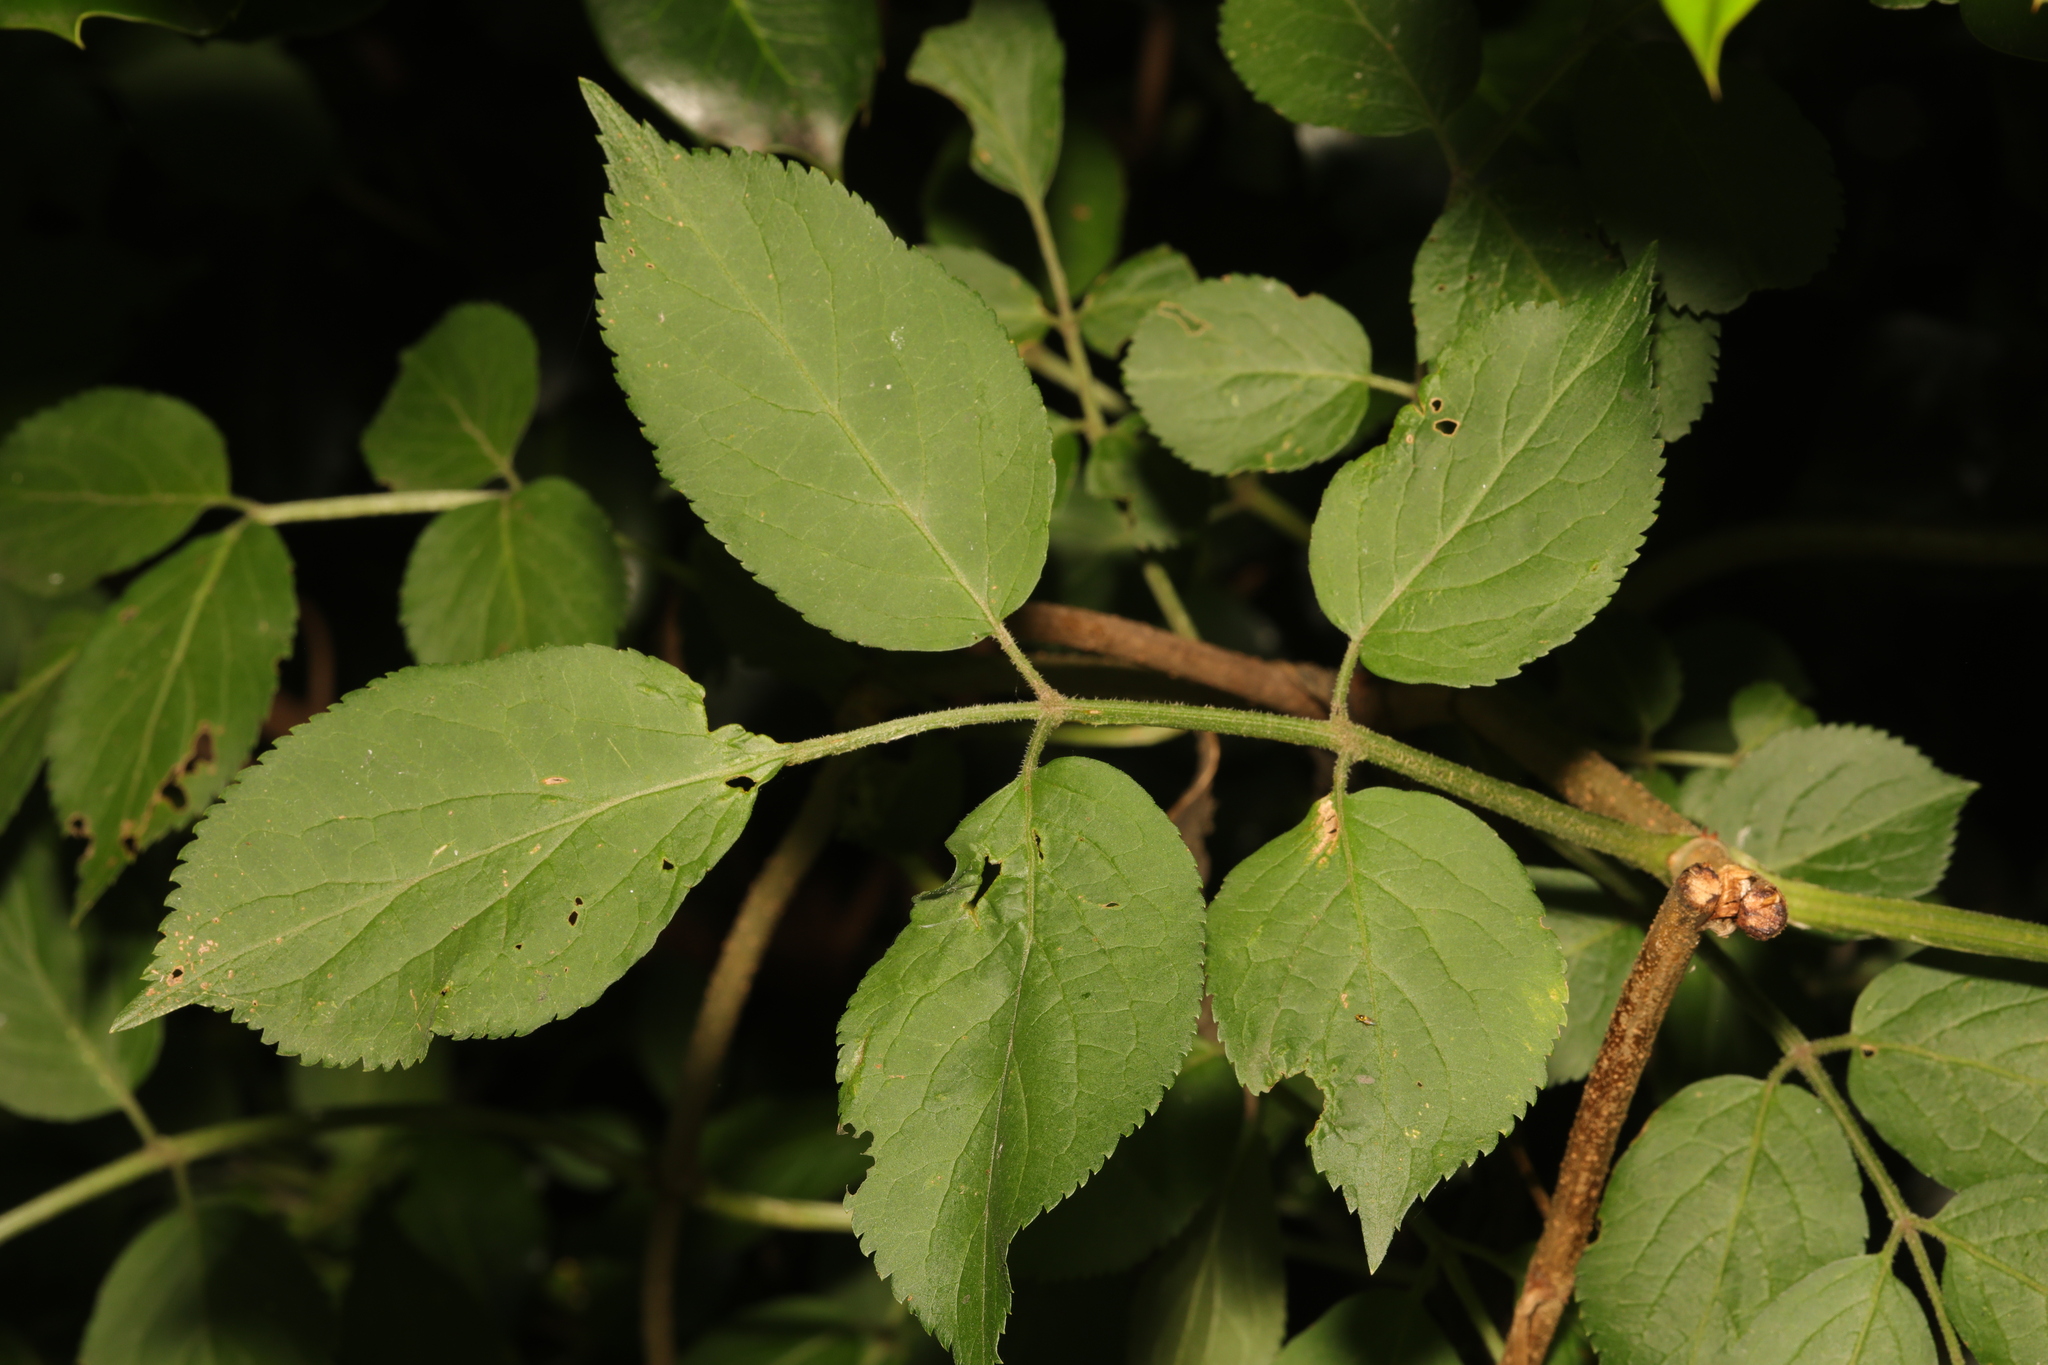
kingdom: Plantae
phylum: Tracheophyta
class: Magnoliopsida
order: Dipsacales
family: Viburnaceae
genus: Sambucus
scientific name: Sambucus nigra
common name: Elder
